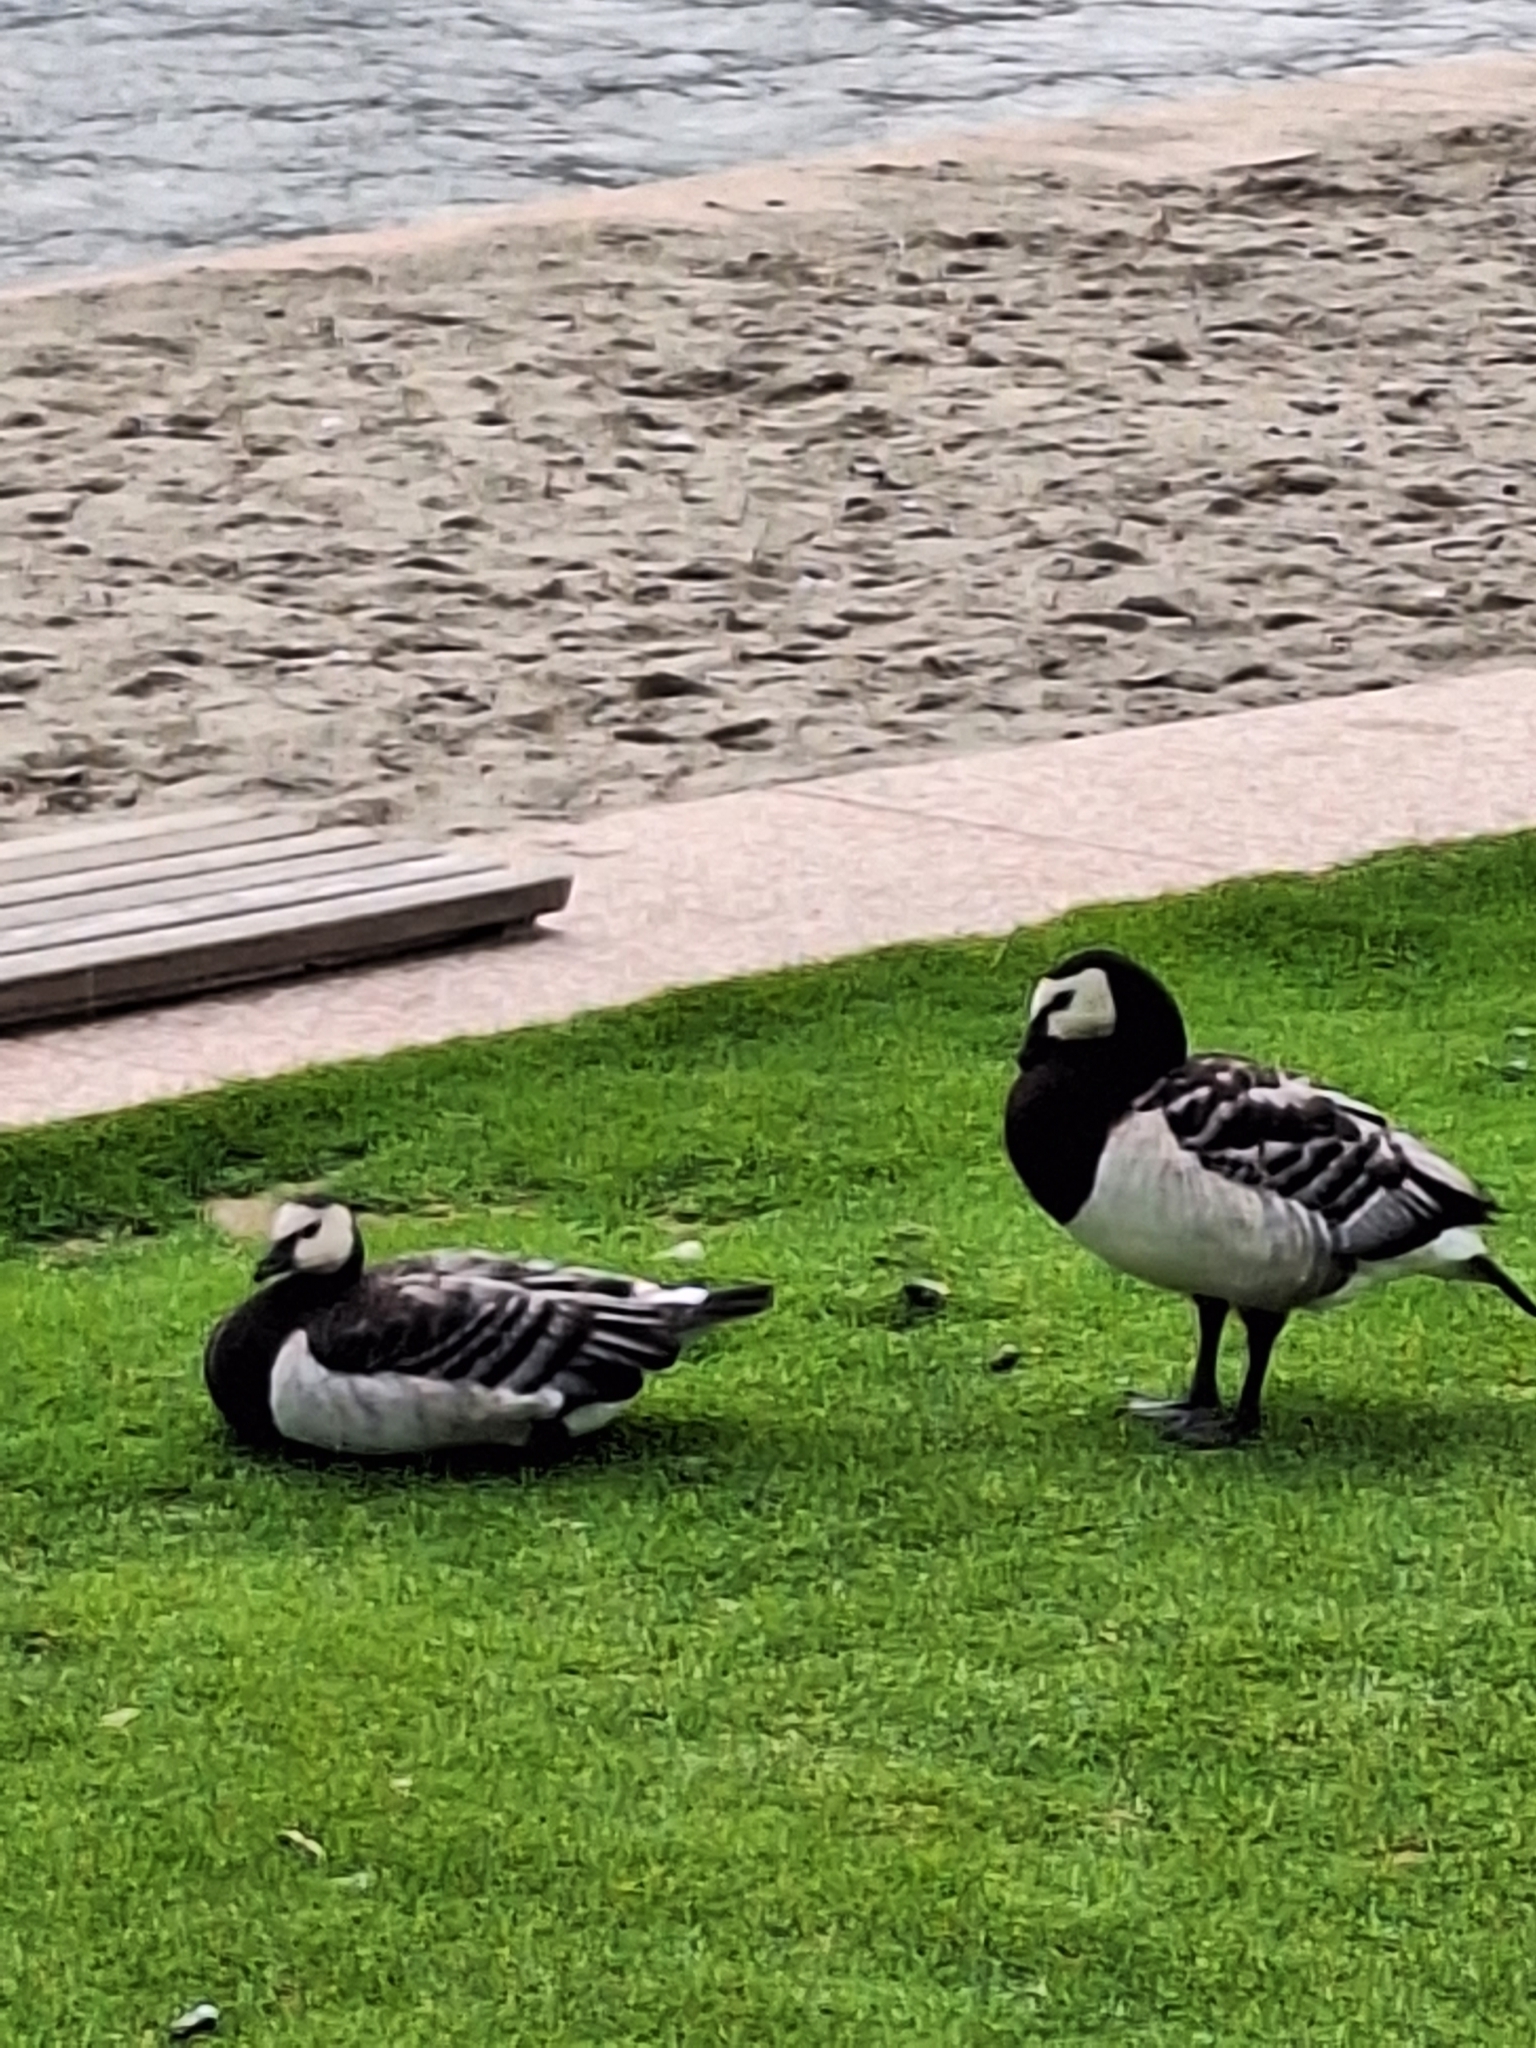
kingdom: Animalia
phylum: Chordata
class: Aves
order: Anseriformes
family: Anatidae
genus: Branta
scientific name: Branta leucopsis
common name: Barnacle goose
